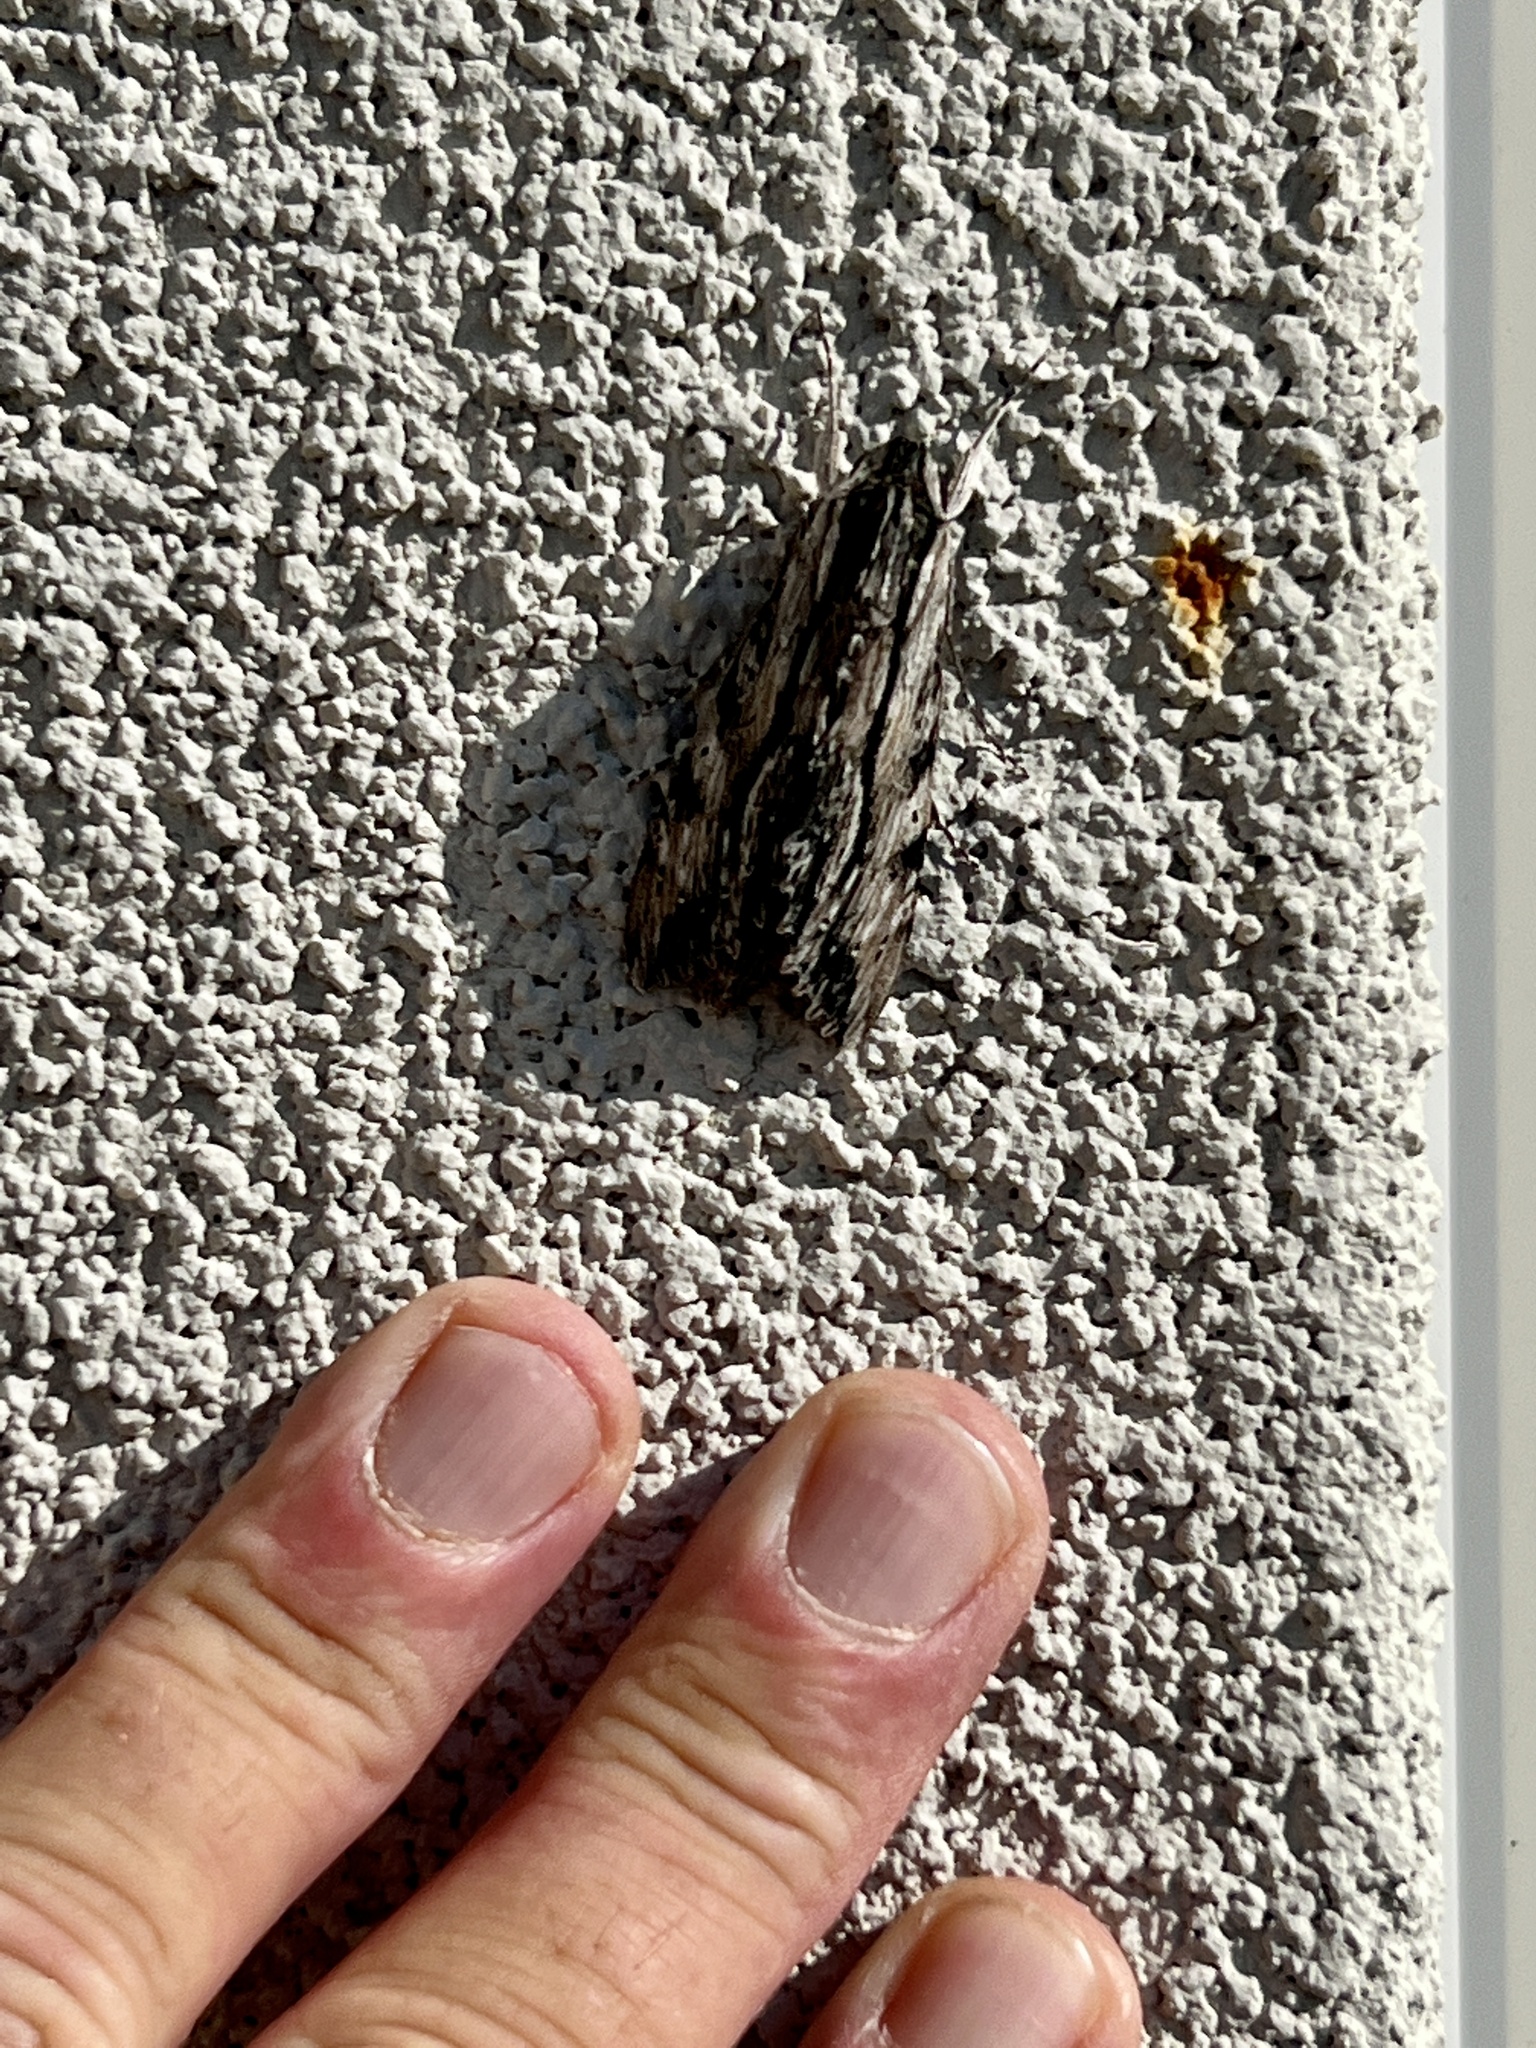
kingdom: Animalia
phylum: Arthropoda
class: Insecta
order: Lepidoptera
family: Sphingidae
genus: Erinnyis
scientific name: Erinnyis obscura
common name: Obscure sphinx
